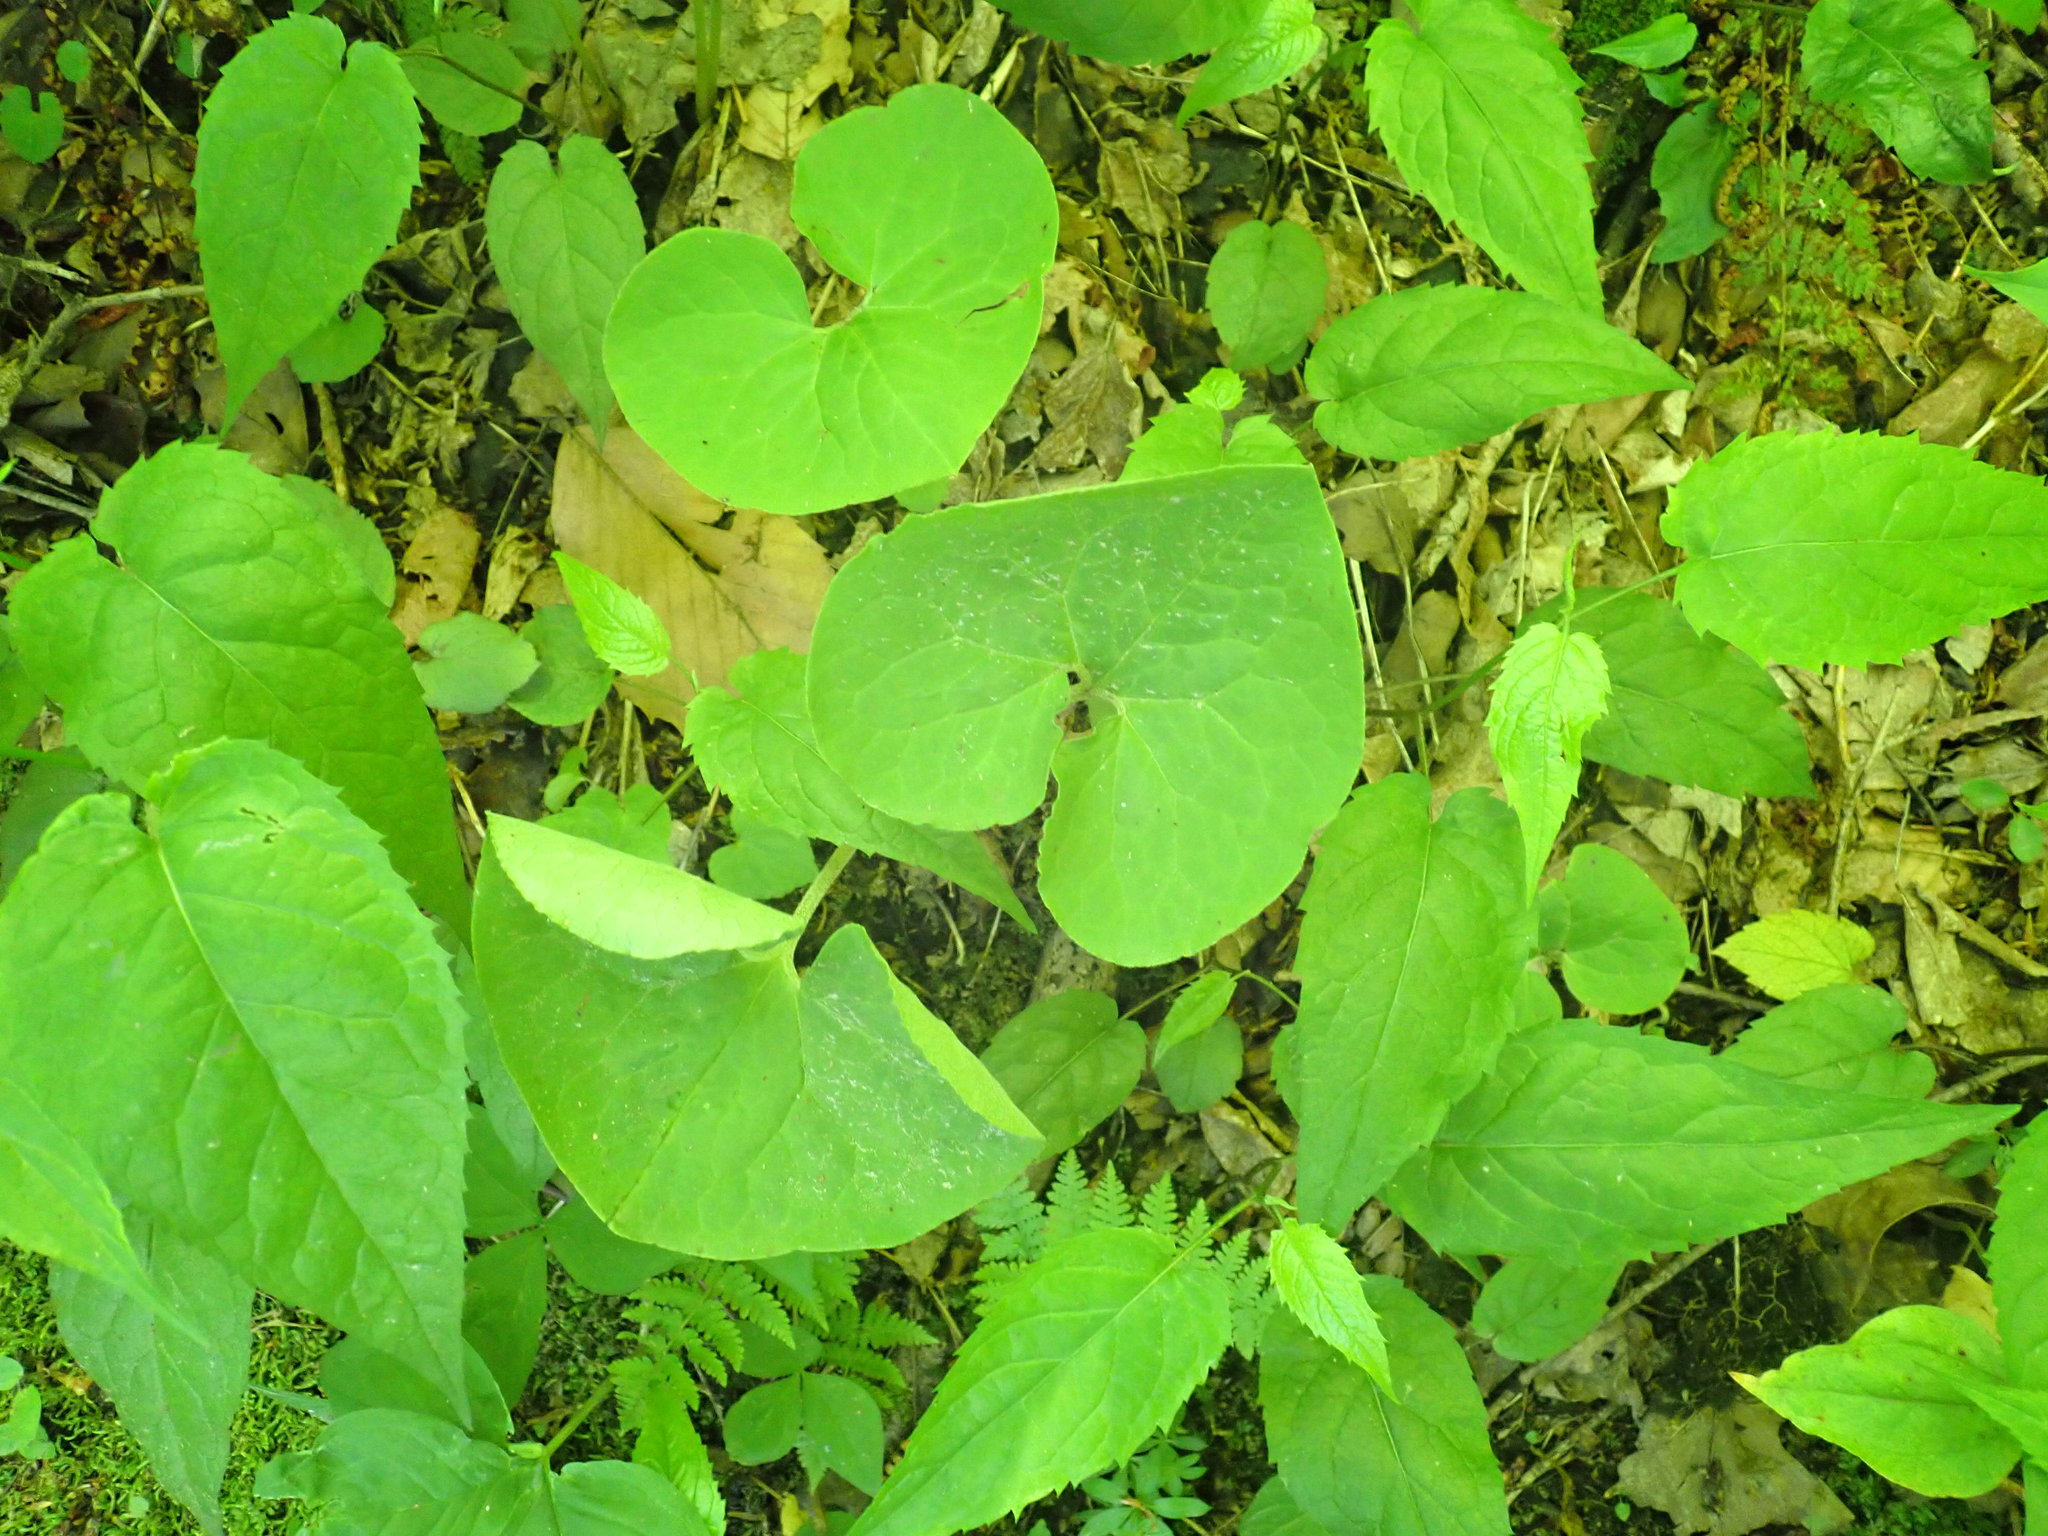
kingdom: Plantae
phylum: Tracheophyta
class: Magnoliopsida
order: Piperales
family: Aristolochiaceae
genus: Asarum
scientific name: Asarum canadense
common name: Wild ginger
